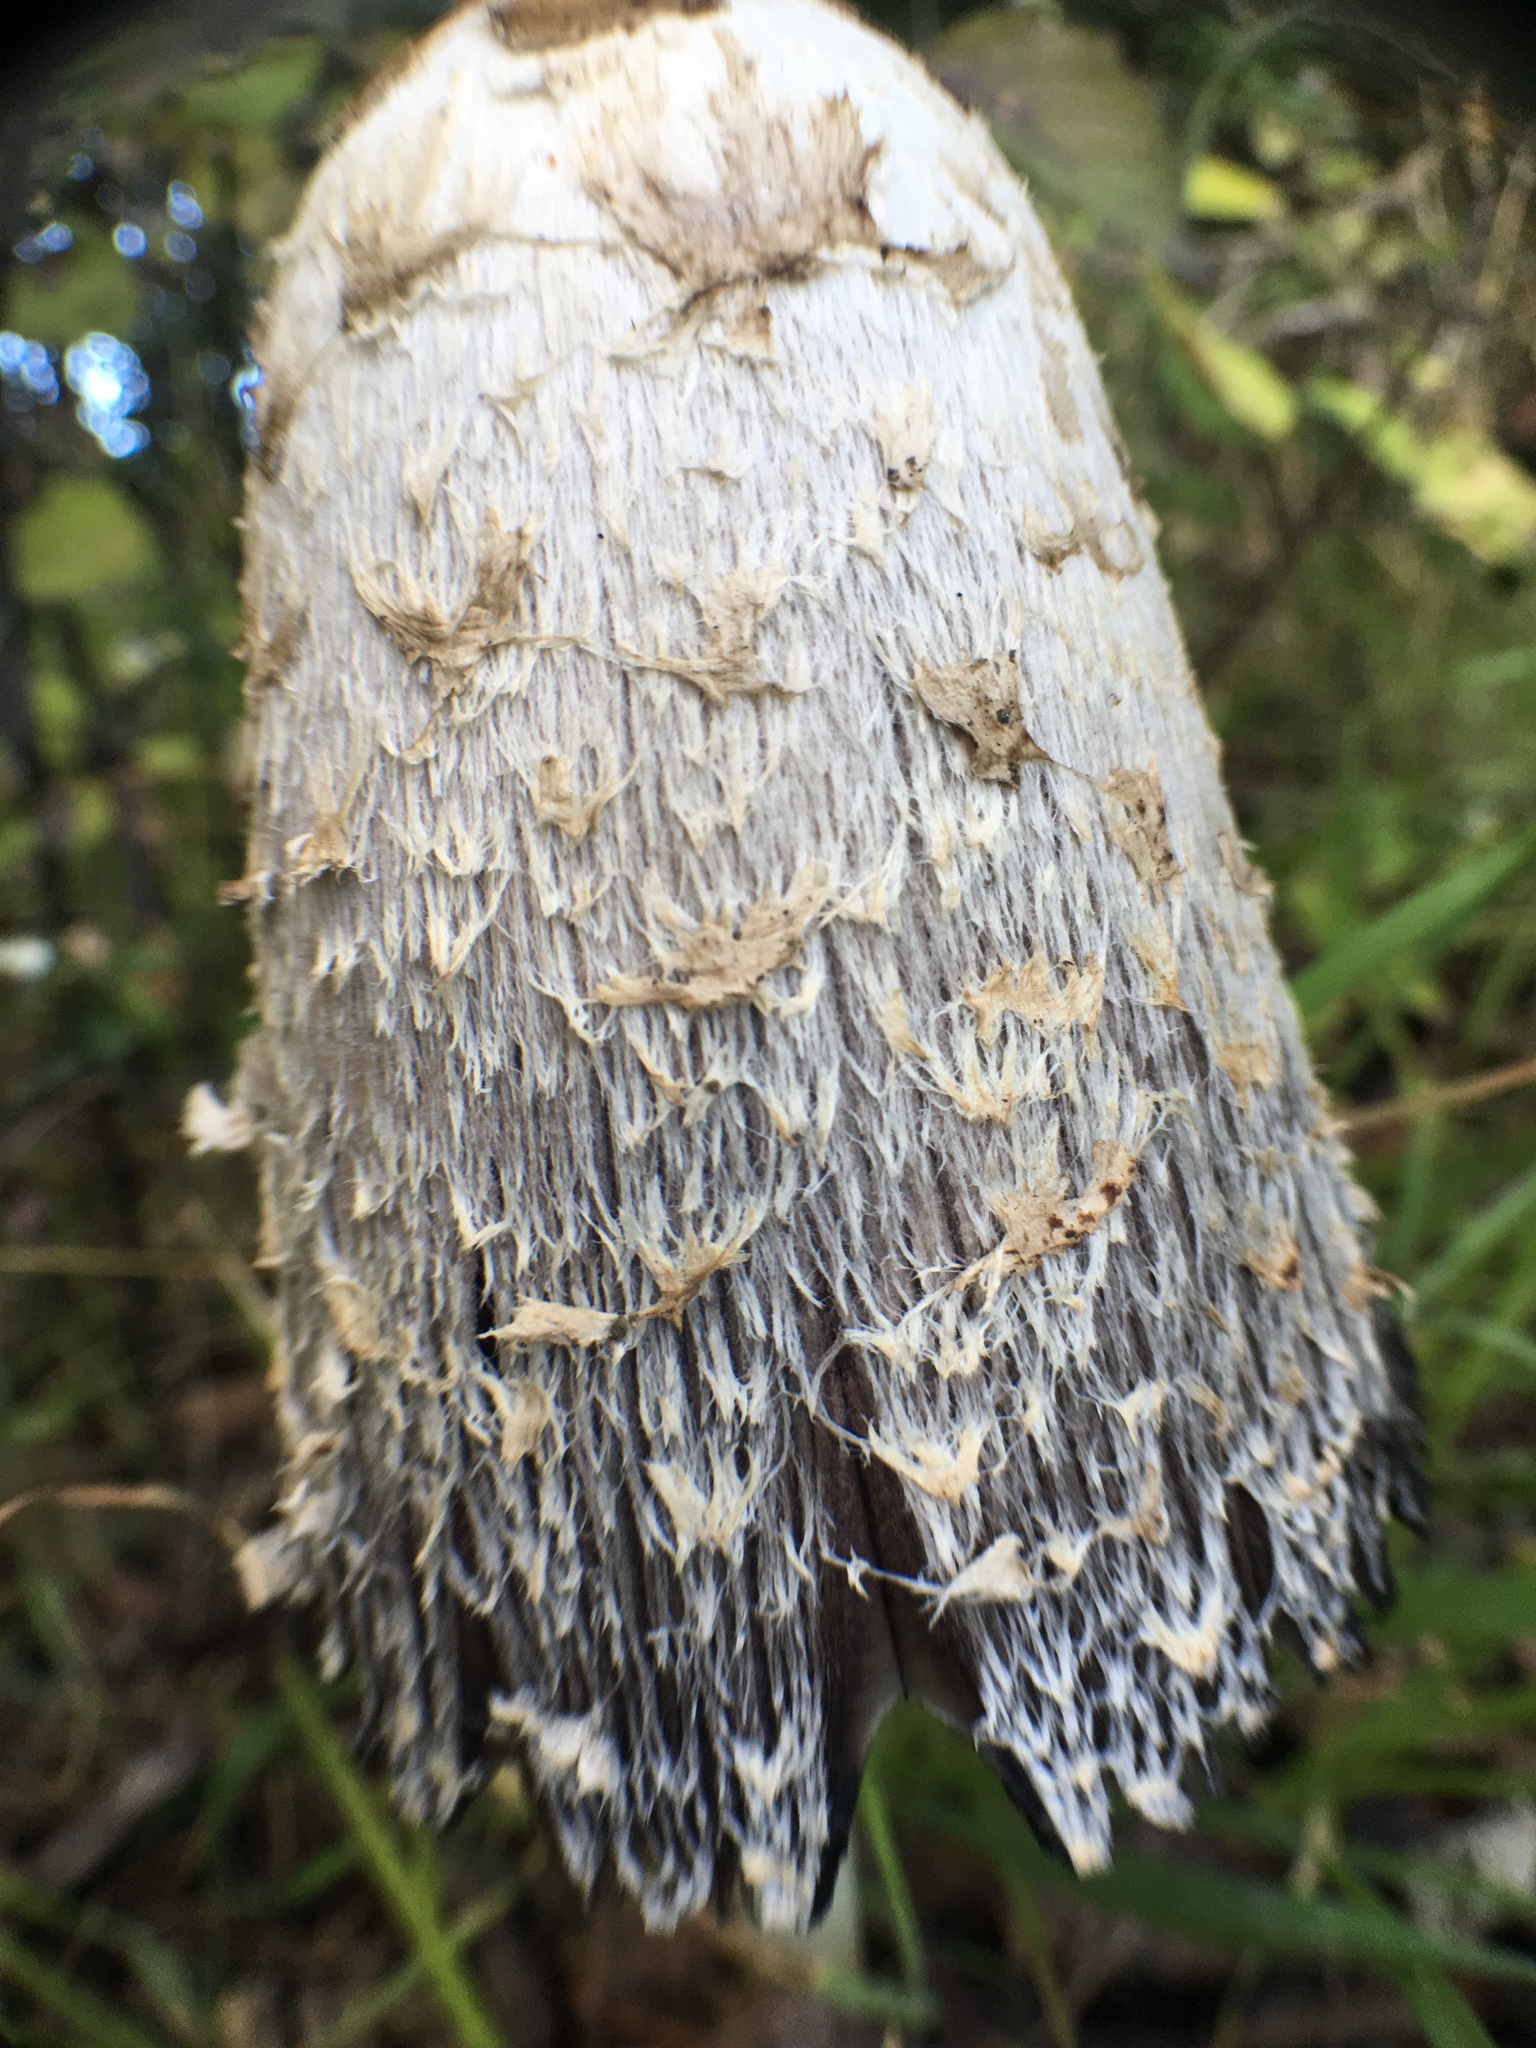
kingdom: Fungi
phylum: Basidiomycota
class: Agaricomycetes
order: Agaricales
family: Agaricaceae
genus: Coprinus
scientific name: Coprinus comatus
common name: Lawyer's wig
